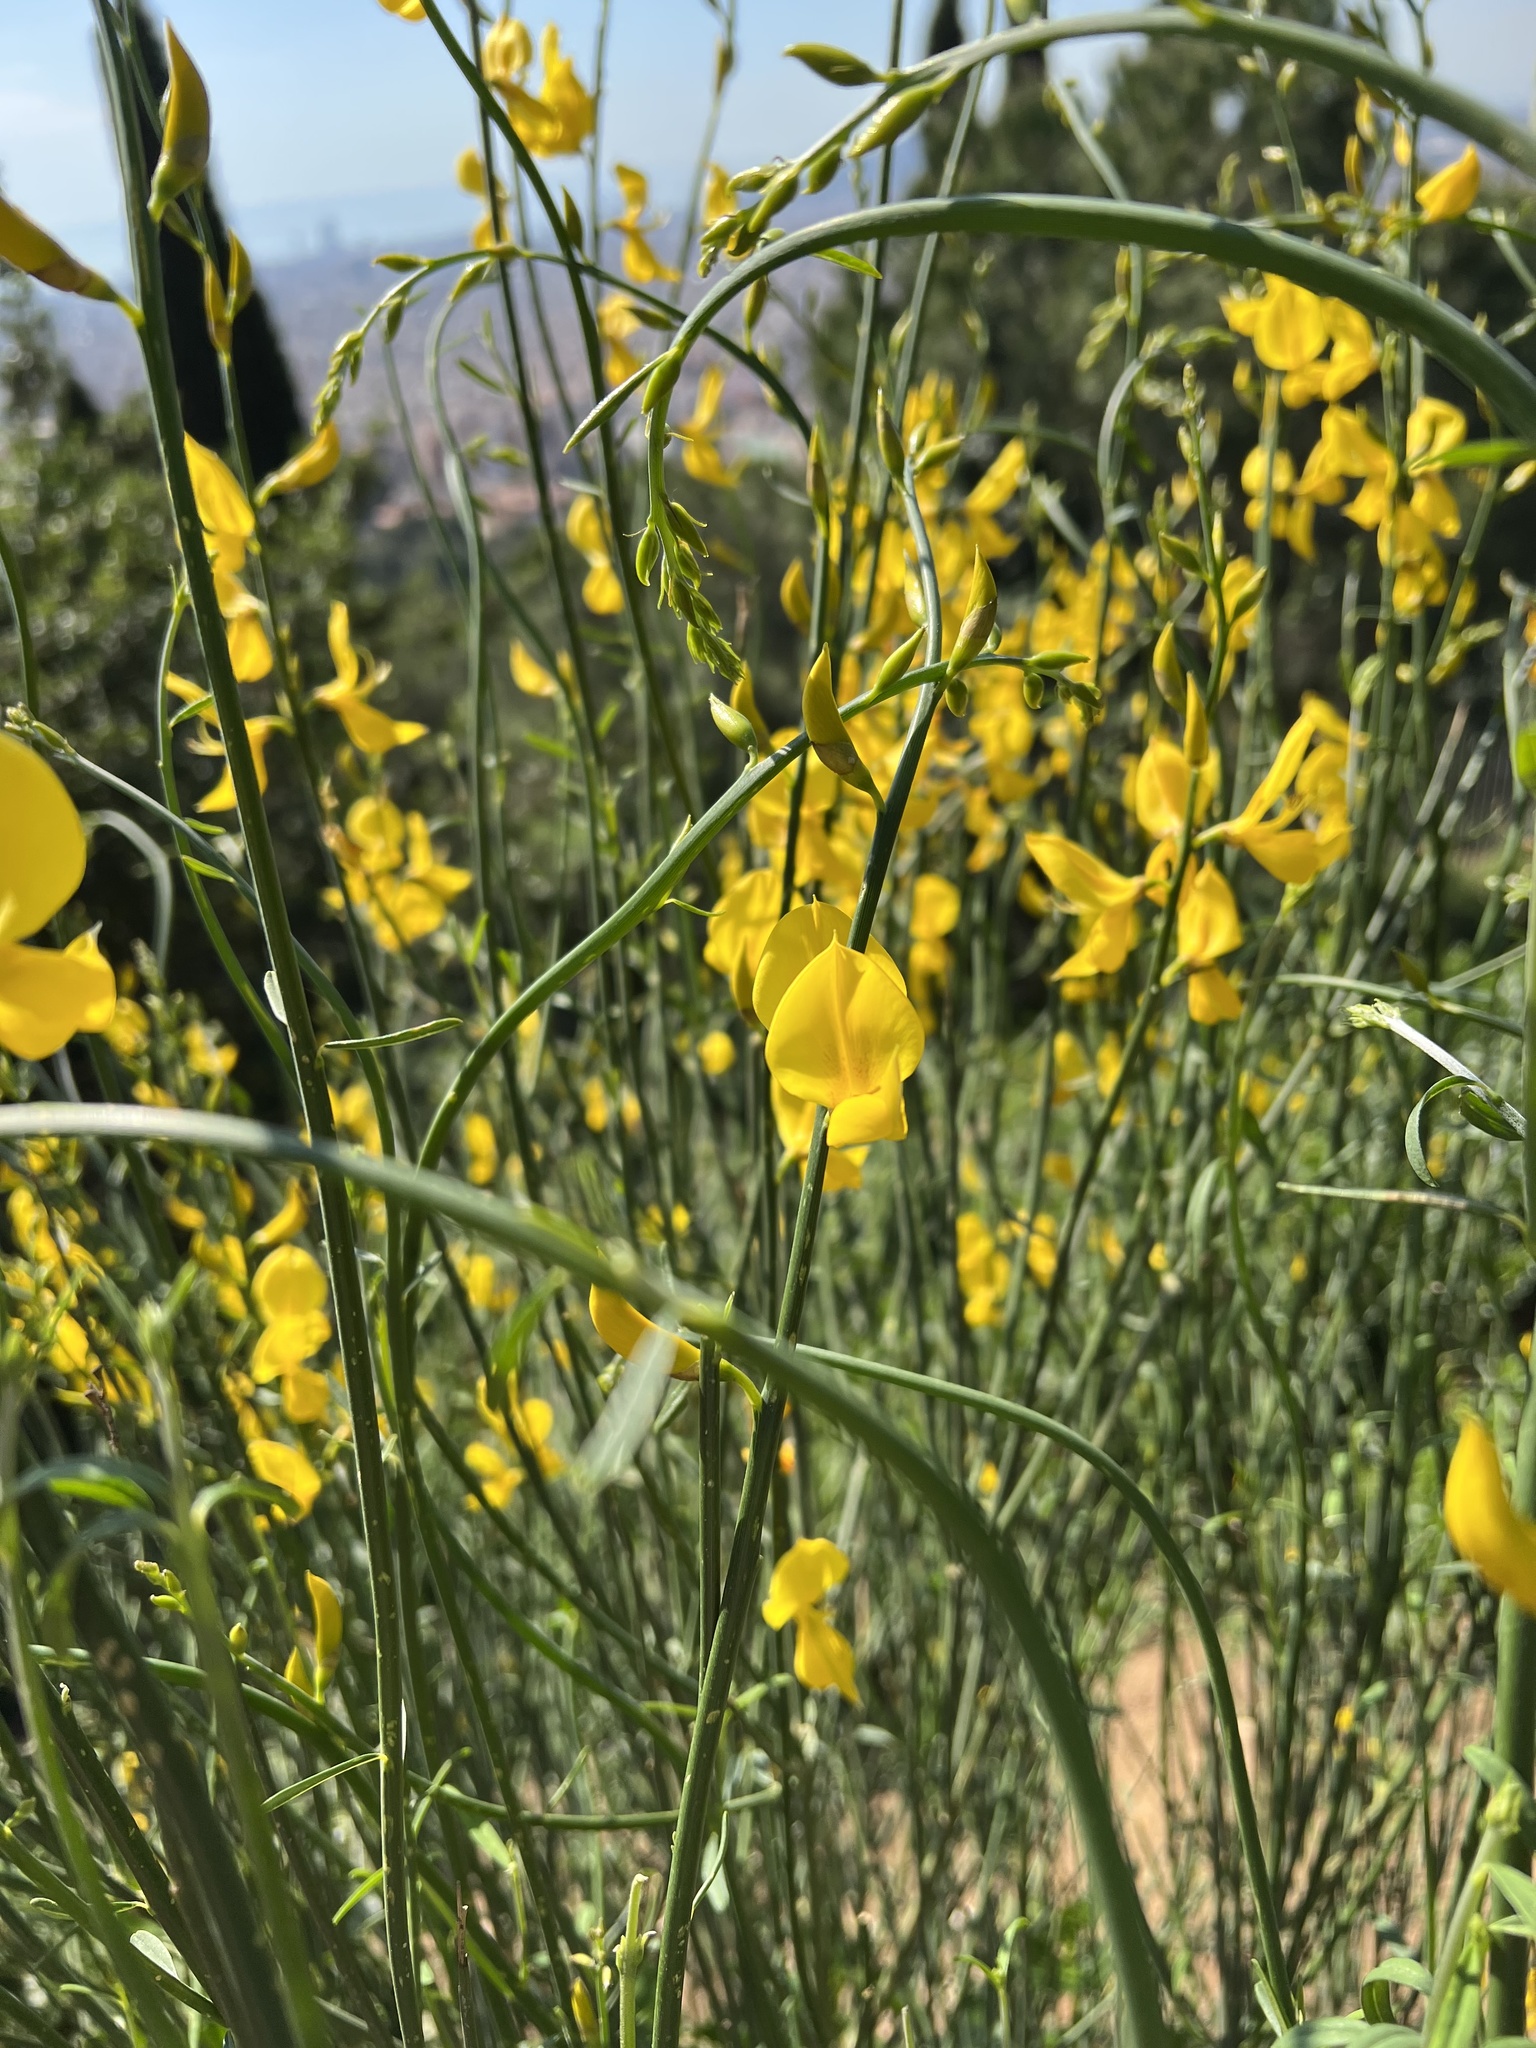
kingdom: Plantae
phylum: Tracheophyta
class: Magnoliopsida
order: Fabales
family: Fabaceae
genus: Spartium
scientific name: Spartium junceum
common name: Spanish broom
